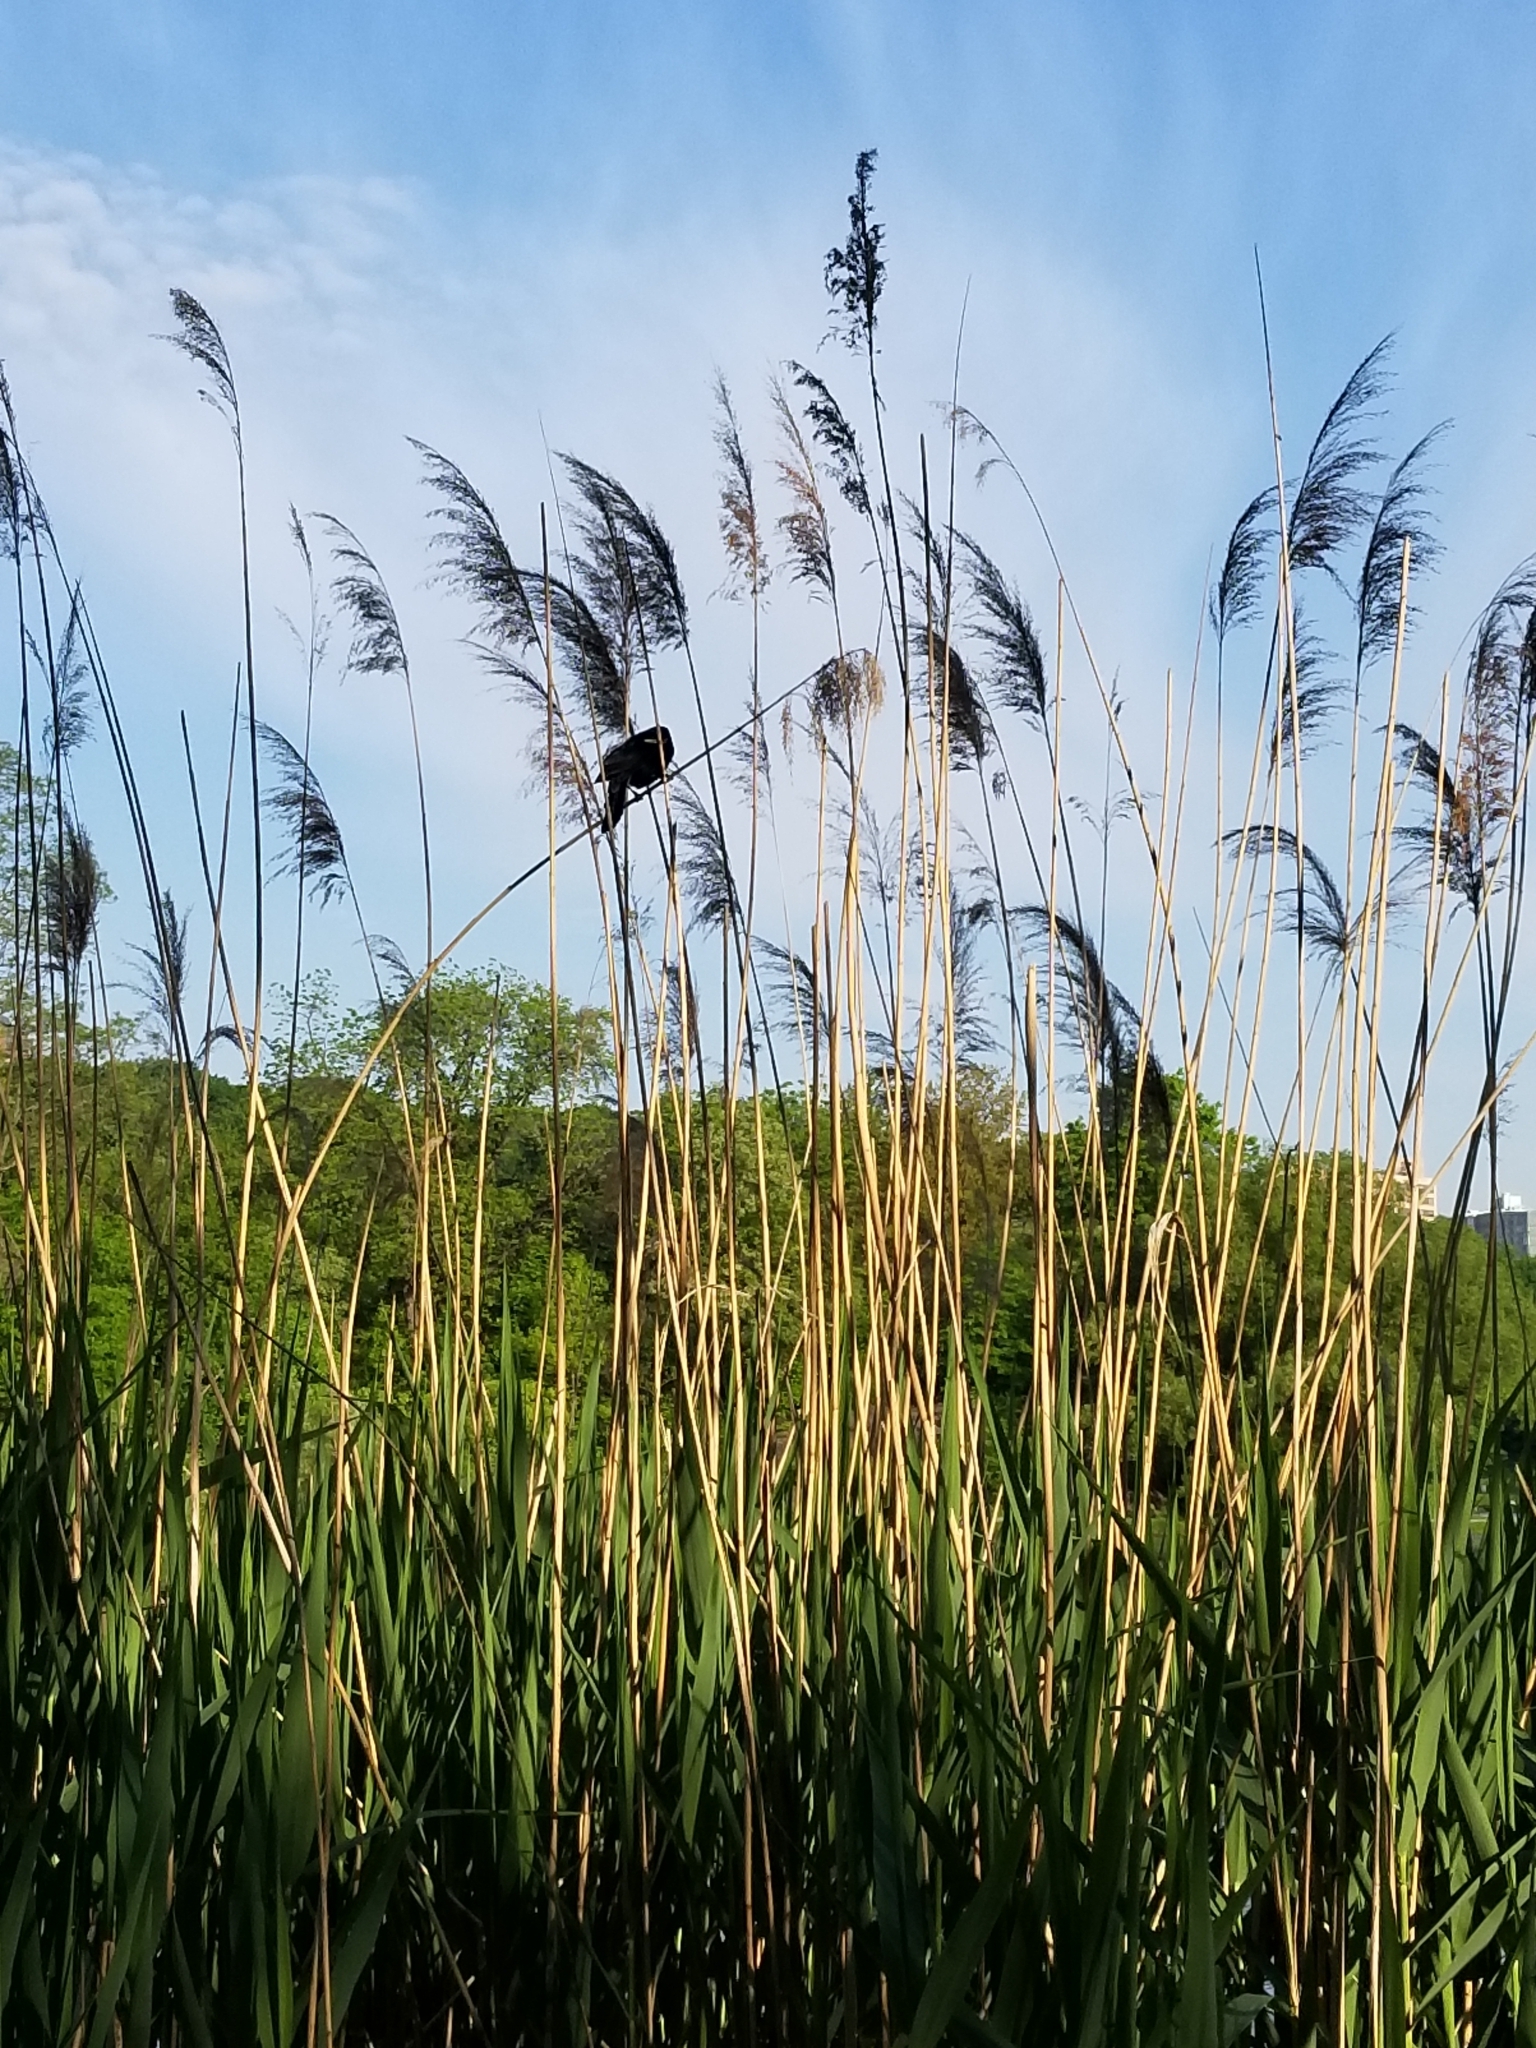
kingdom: Animalia
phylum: Chordata
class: Aves
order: Passeriformes
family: Icteridae
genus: Agelaius
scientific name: Agelaius phoeniceus
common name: Red-winged blackbird
